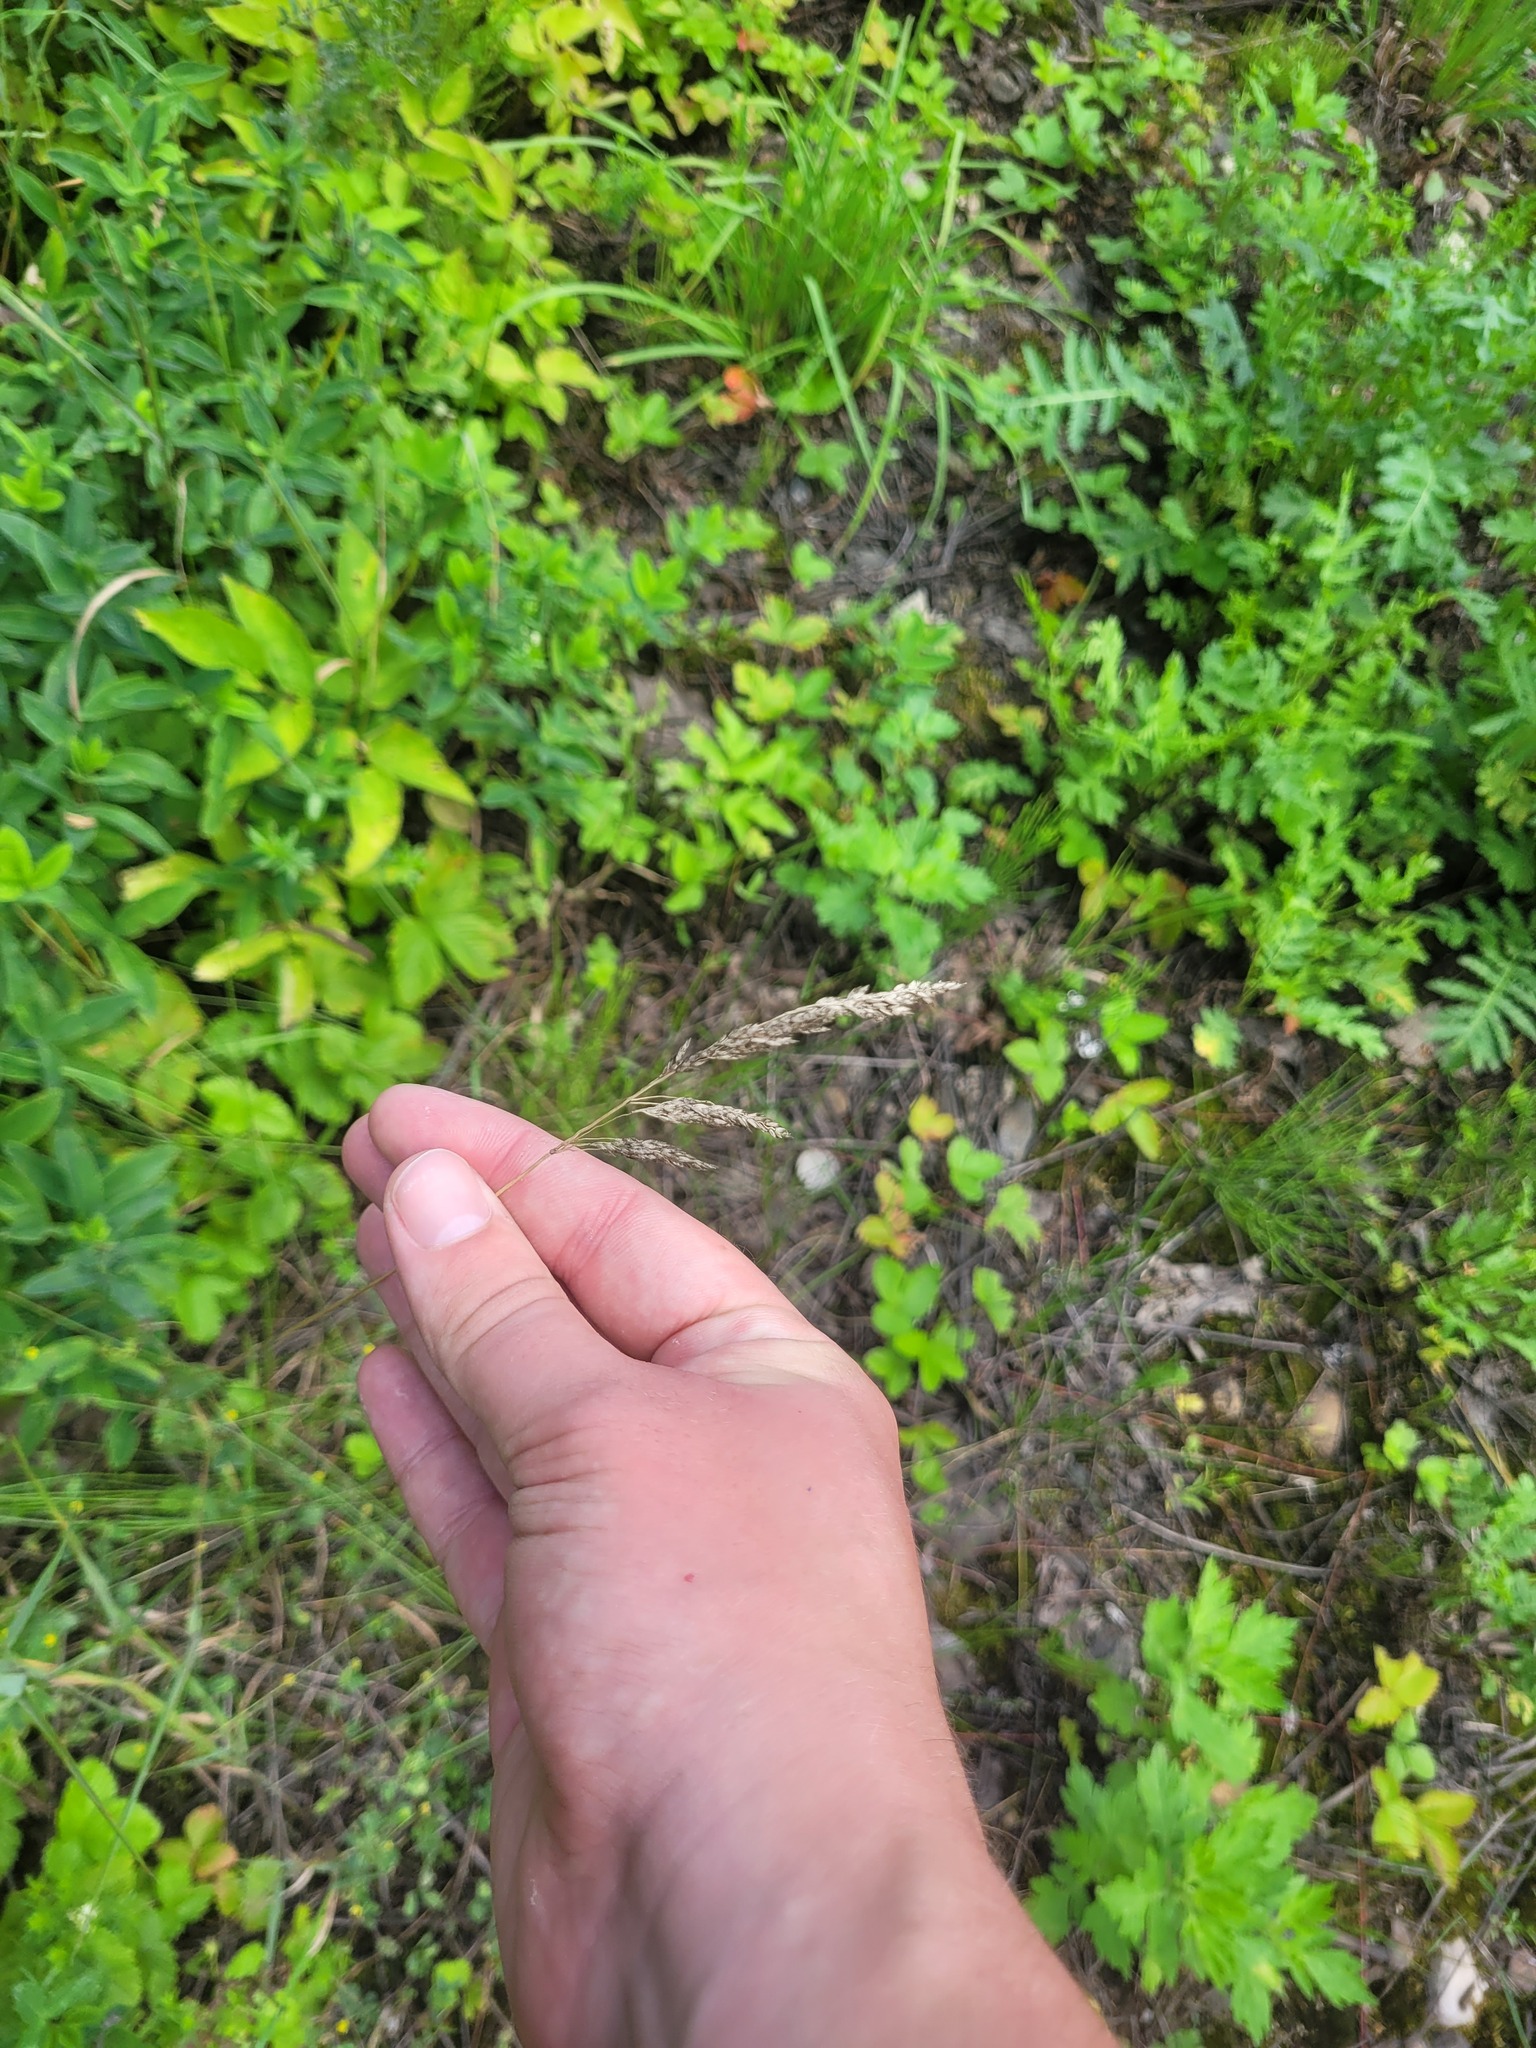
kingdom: Plantae
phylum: Tracheophyta
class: Liliopsida
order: Poales
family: Poaceae
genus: Poa
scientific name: Poa angustifolia
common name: Narrow-leaved meadow-grass
